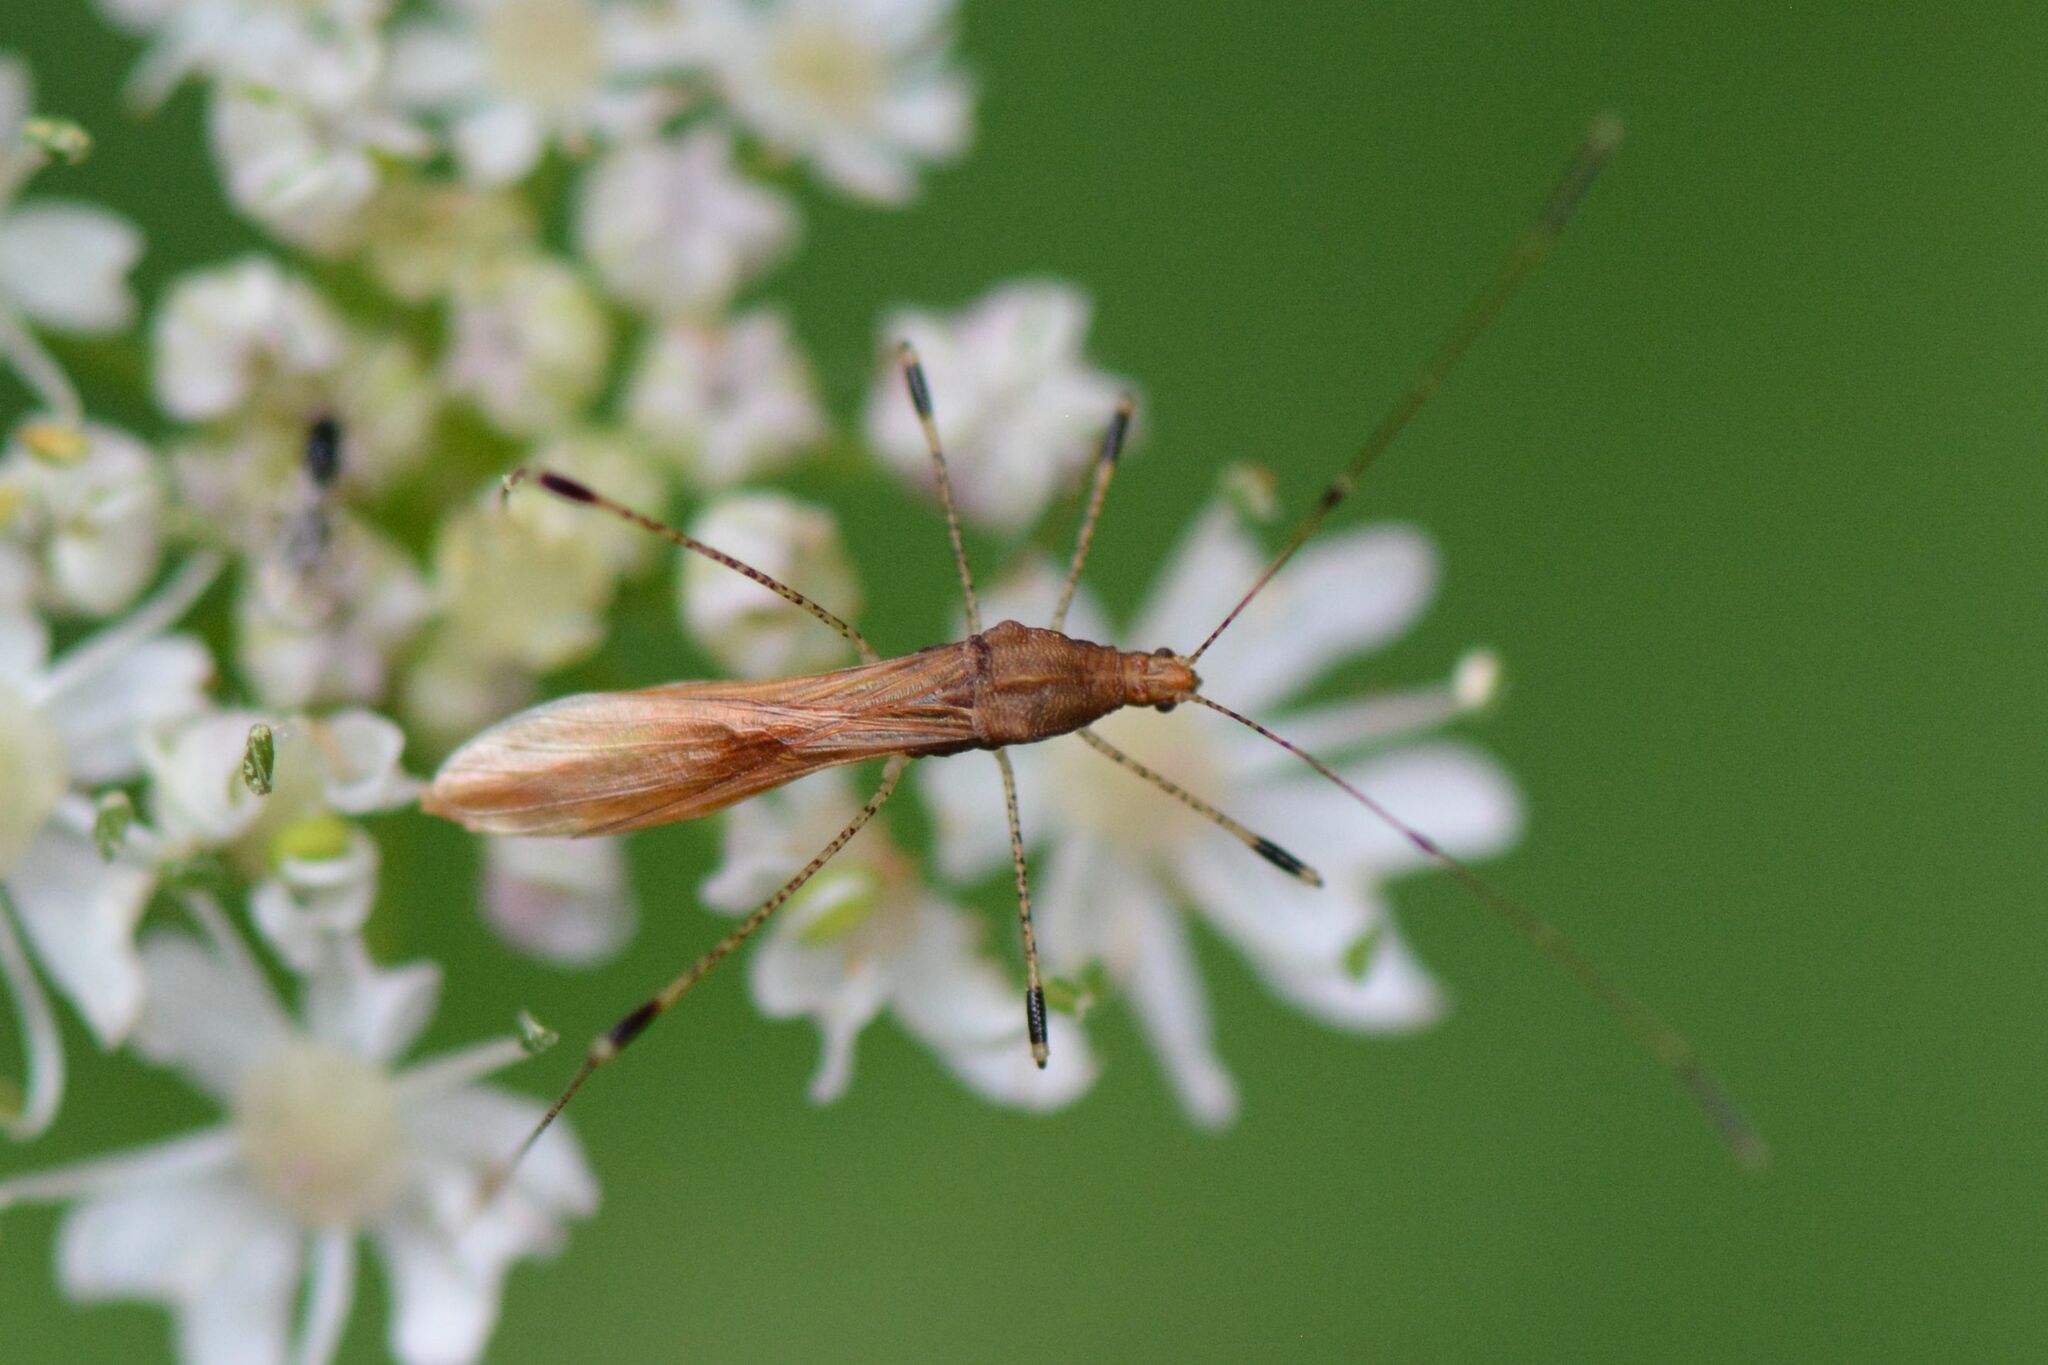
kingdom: Animalia
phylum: Arthropoda
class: Insecta
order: Hemiptera
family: Berytidae
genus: Metatropis
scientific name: Metatropis rufescens
